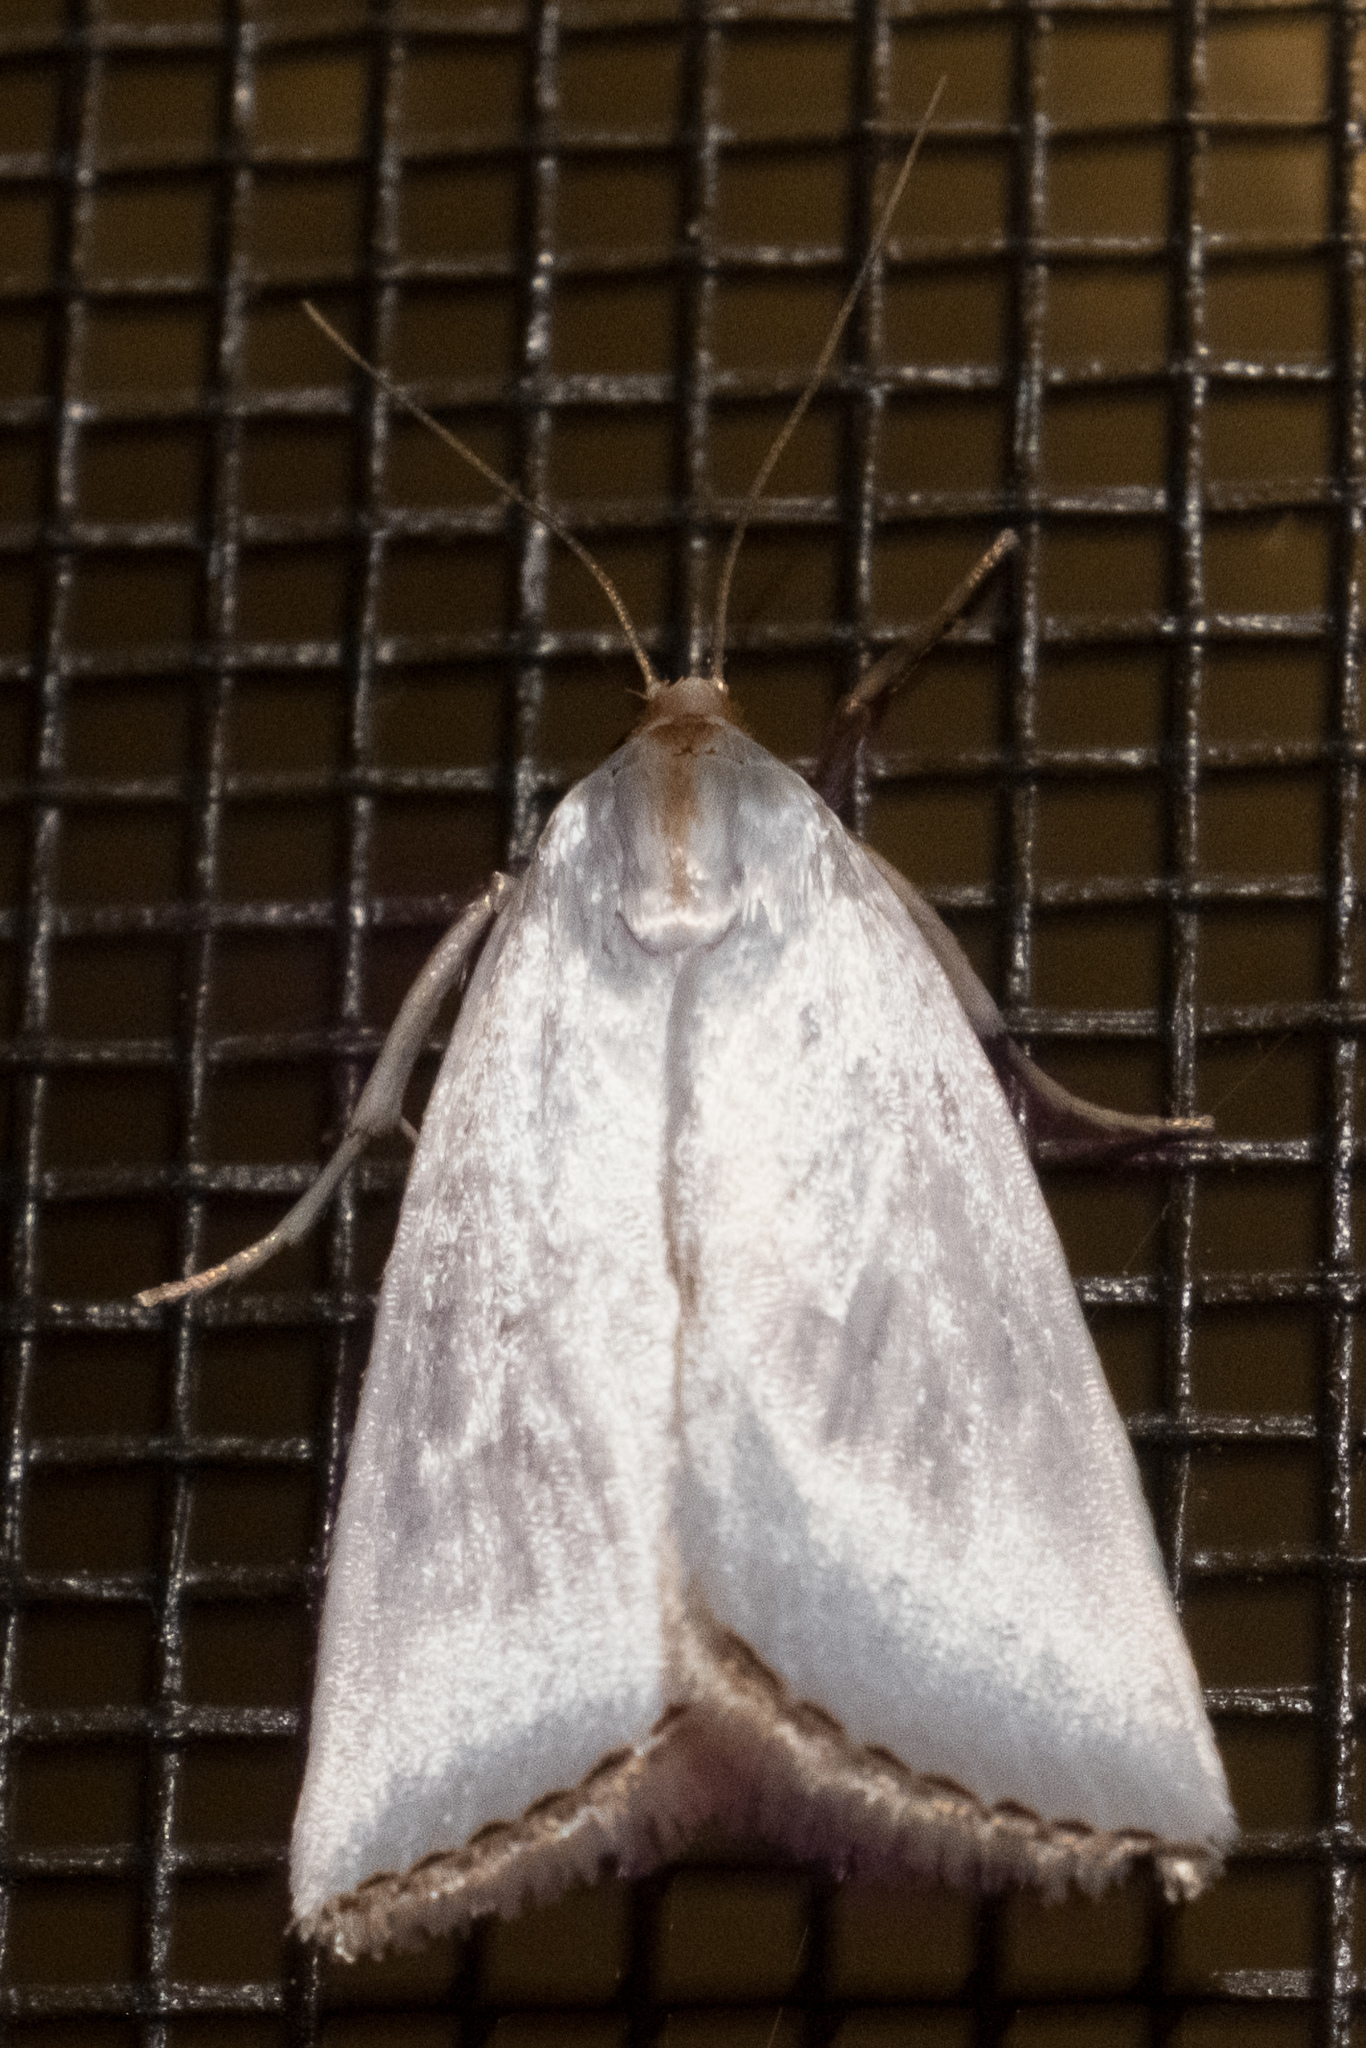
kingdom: Animalia
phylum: Arthropoda
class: Insecta
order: Lepidoptera
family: Crambidae
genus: Argyria
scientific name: Argyria nivalis
